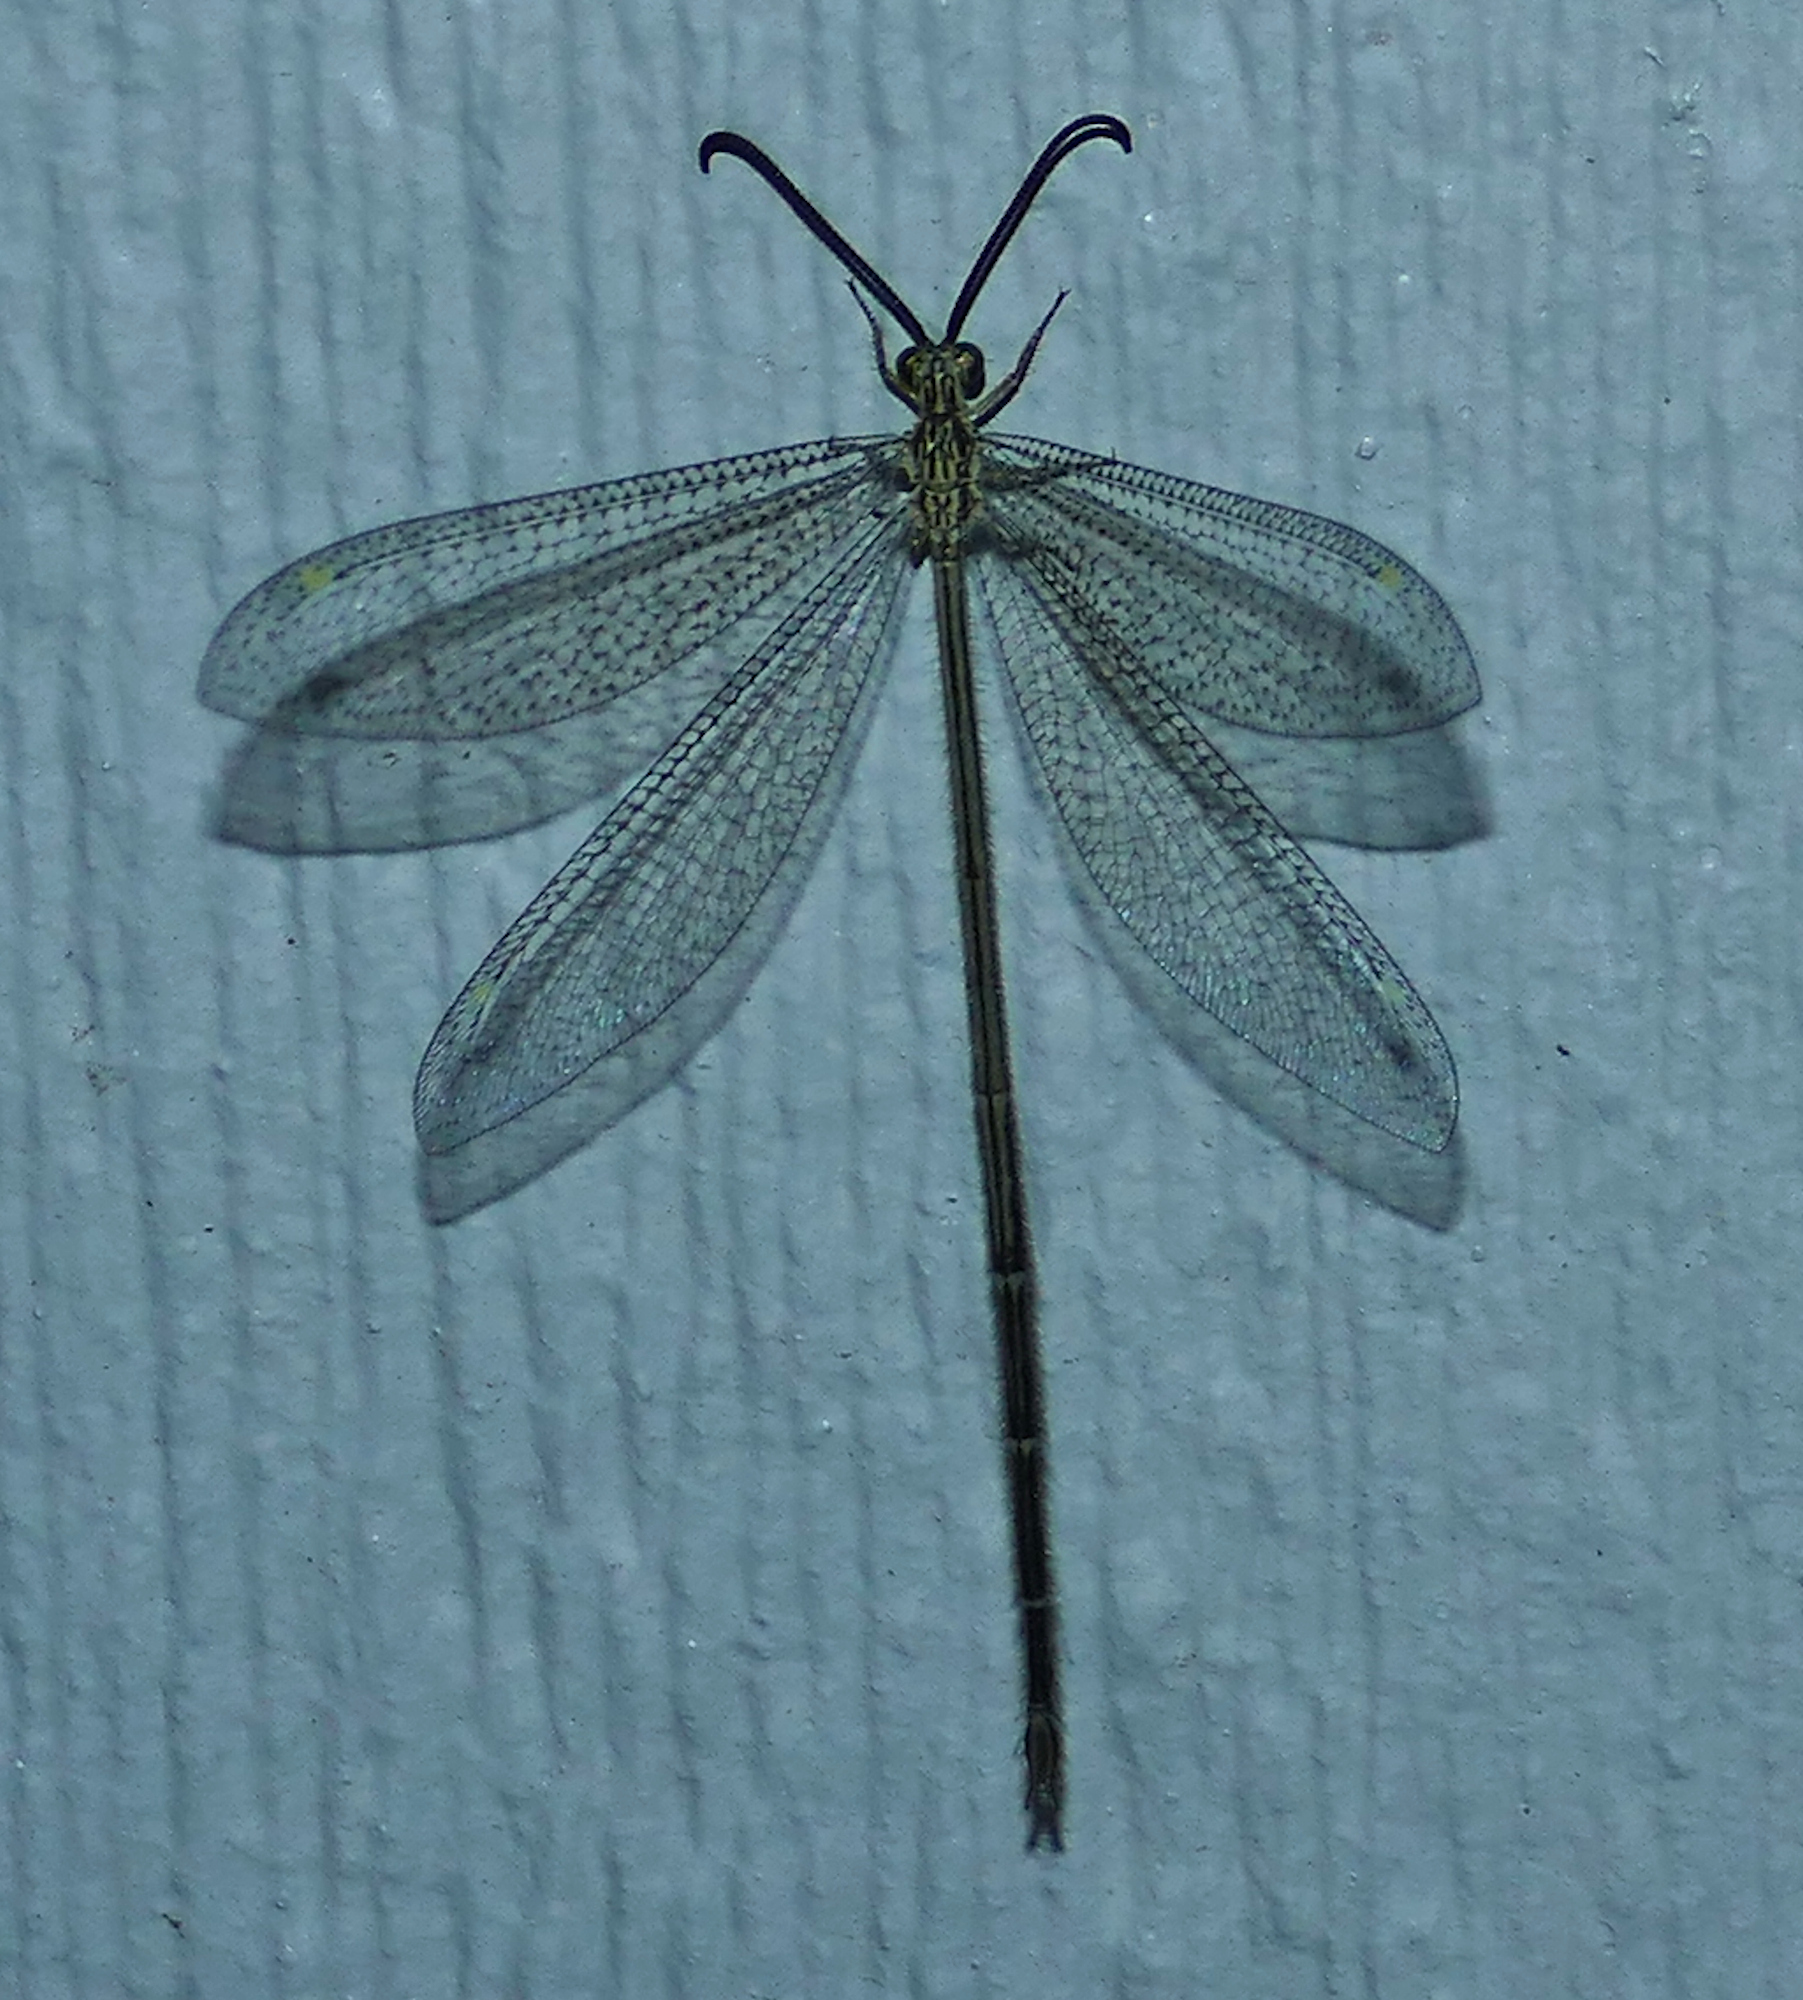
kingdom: Animalia
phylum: Arthropoda
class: Insecta
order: Neuroptera
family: Myrmeleontidae
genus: Brachynemurus
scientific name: Brachynemurus versutus
